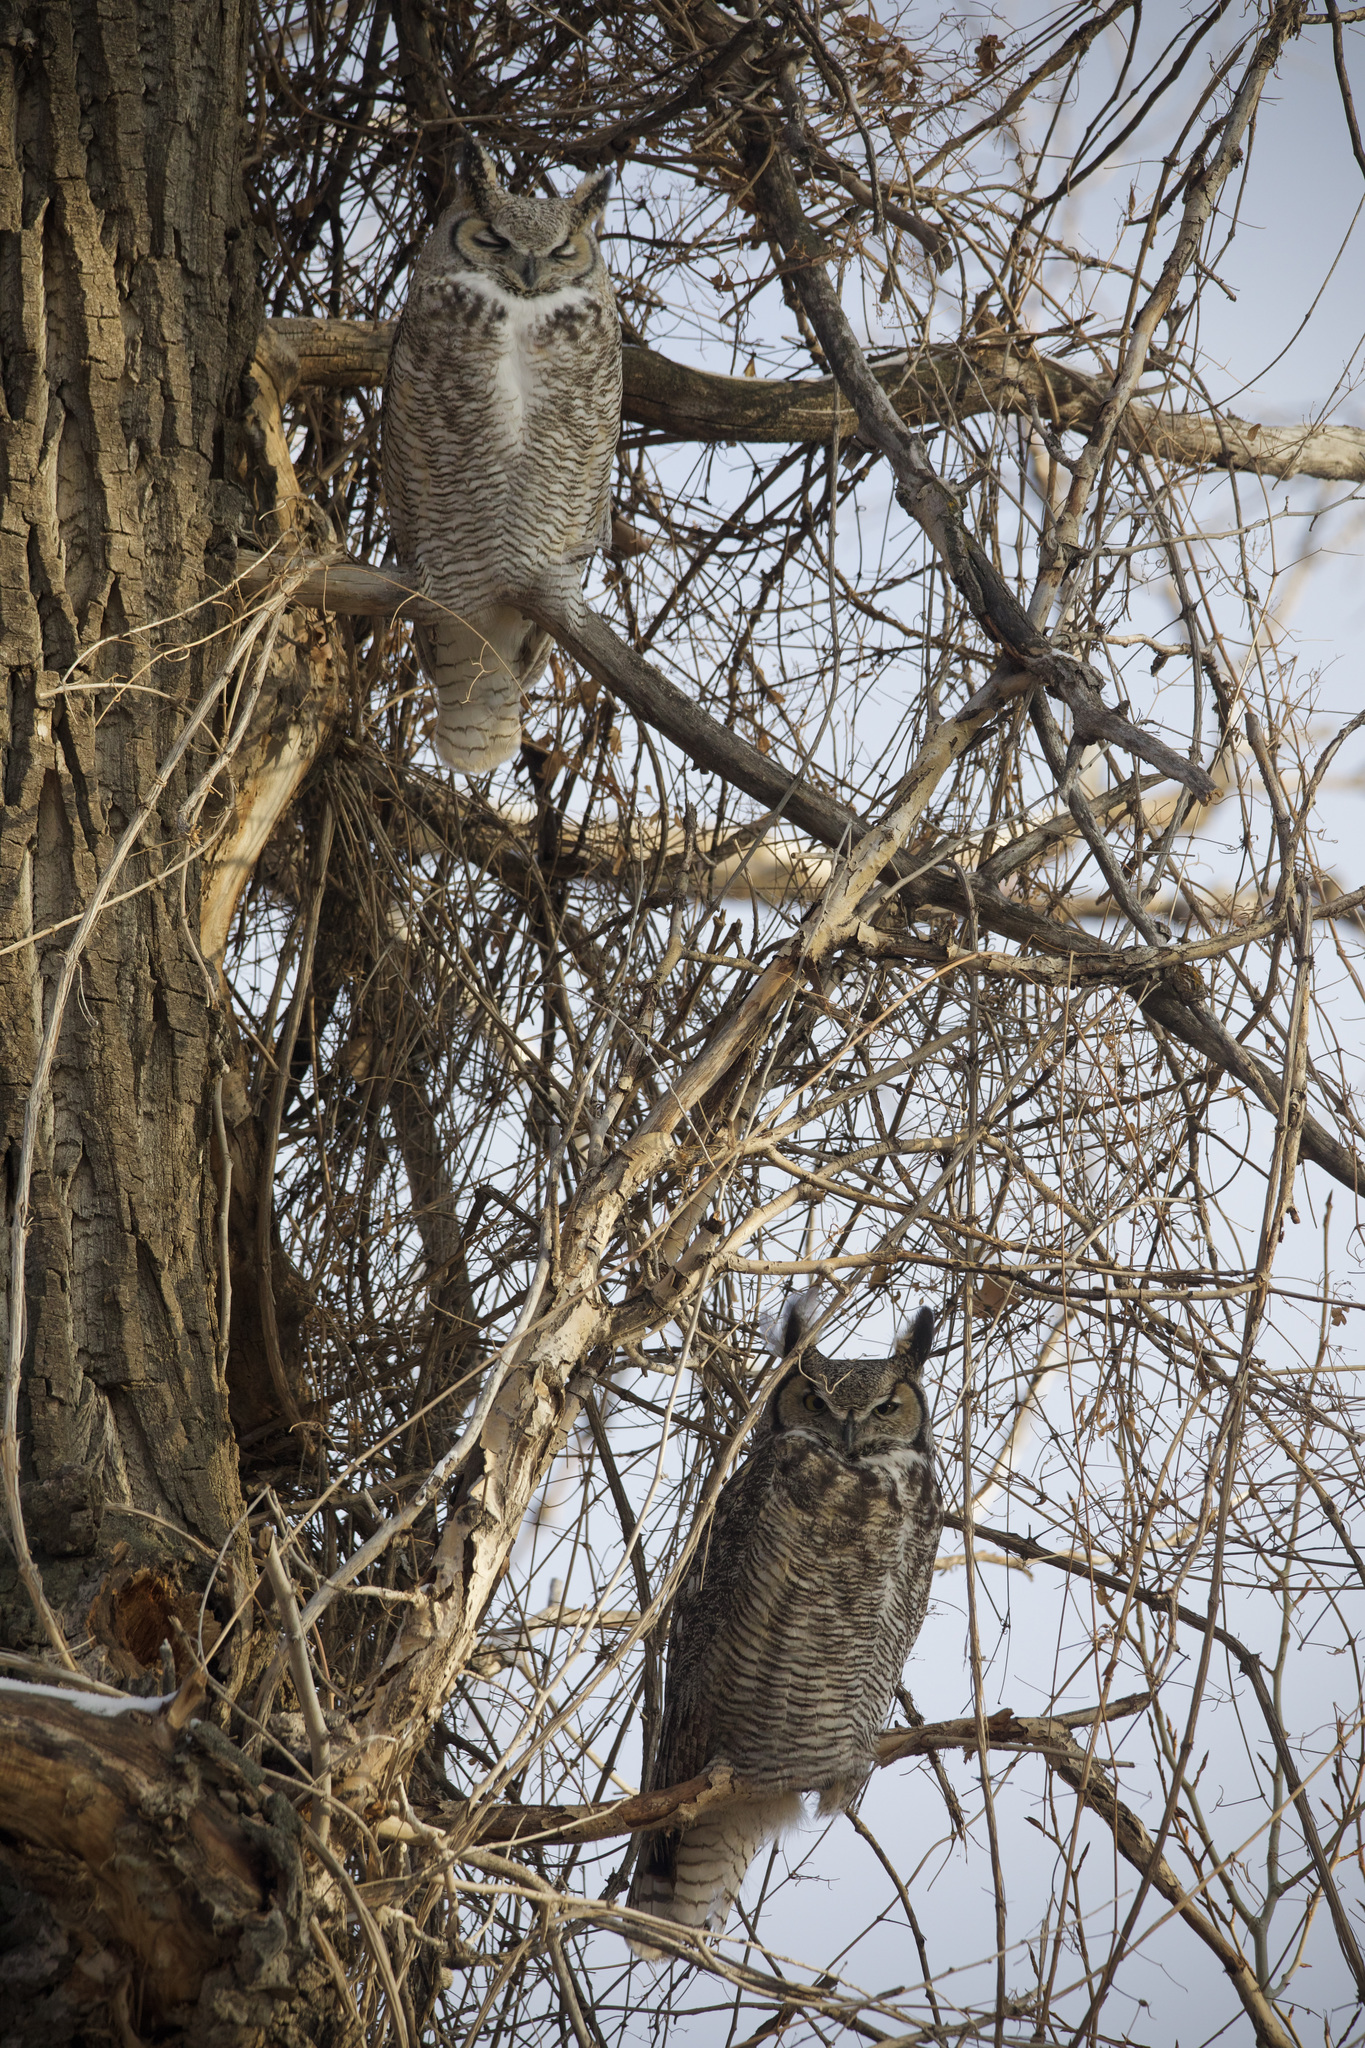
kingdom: Animalia
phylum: Chordata
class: Aves
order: Strigiformes
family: Strigidae
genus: Bubo
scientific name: Bubo virginianus
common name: Great horned owl
